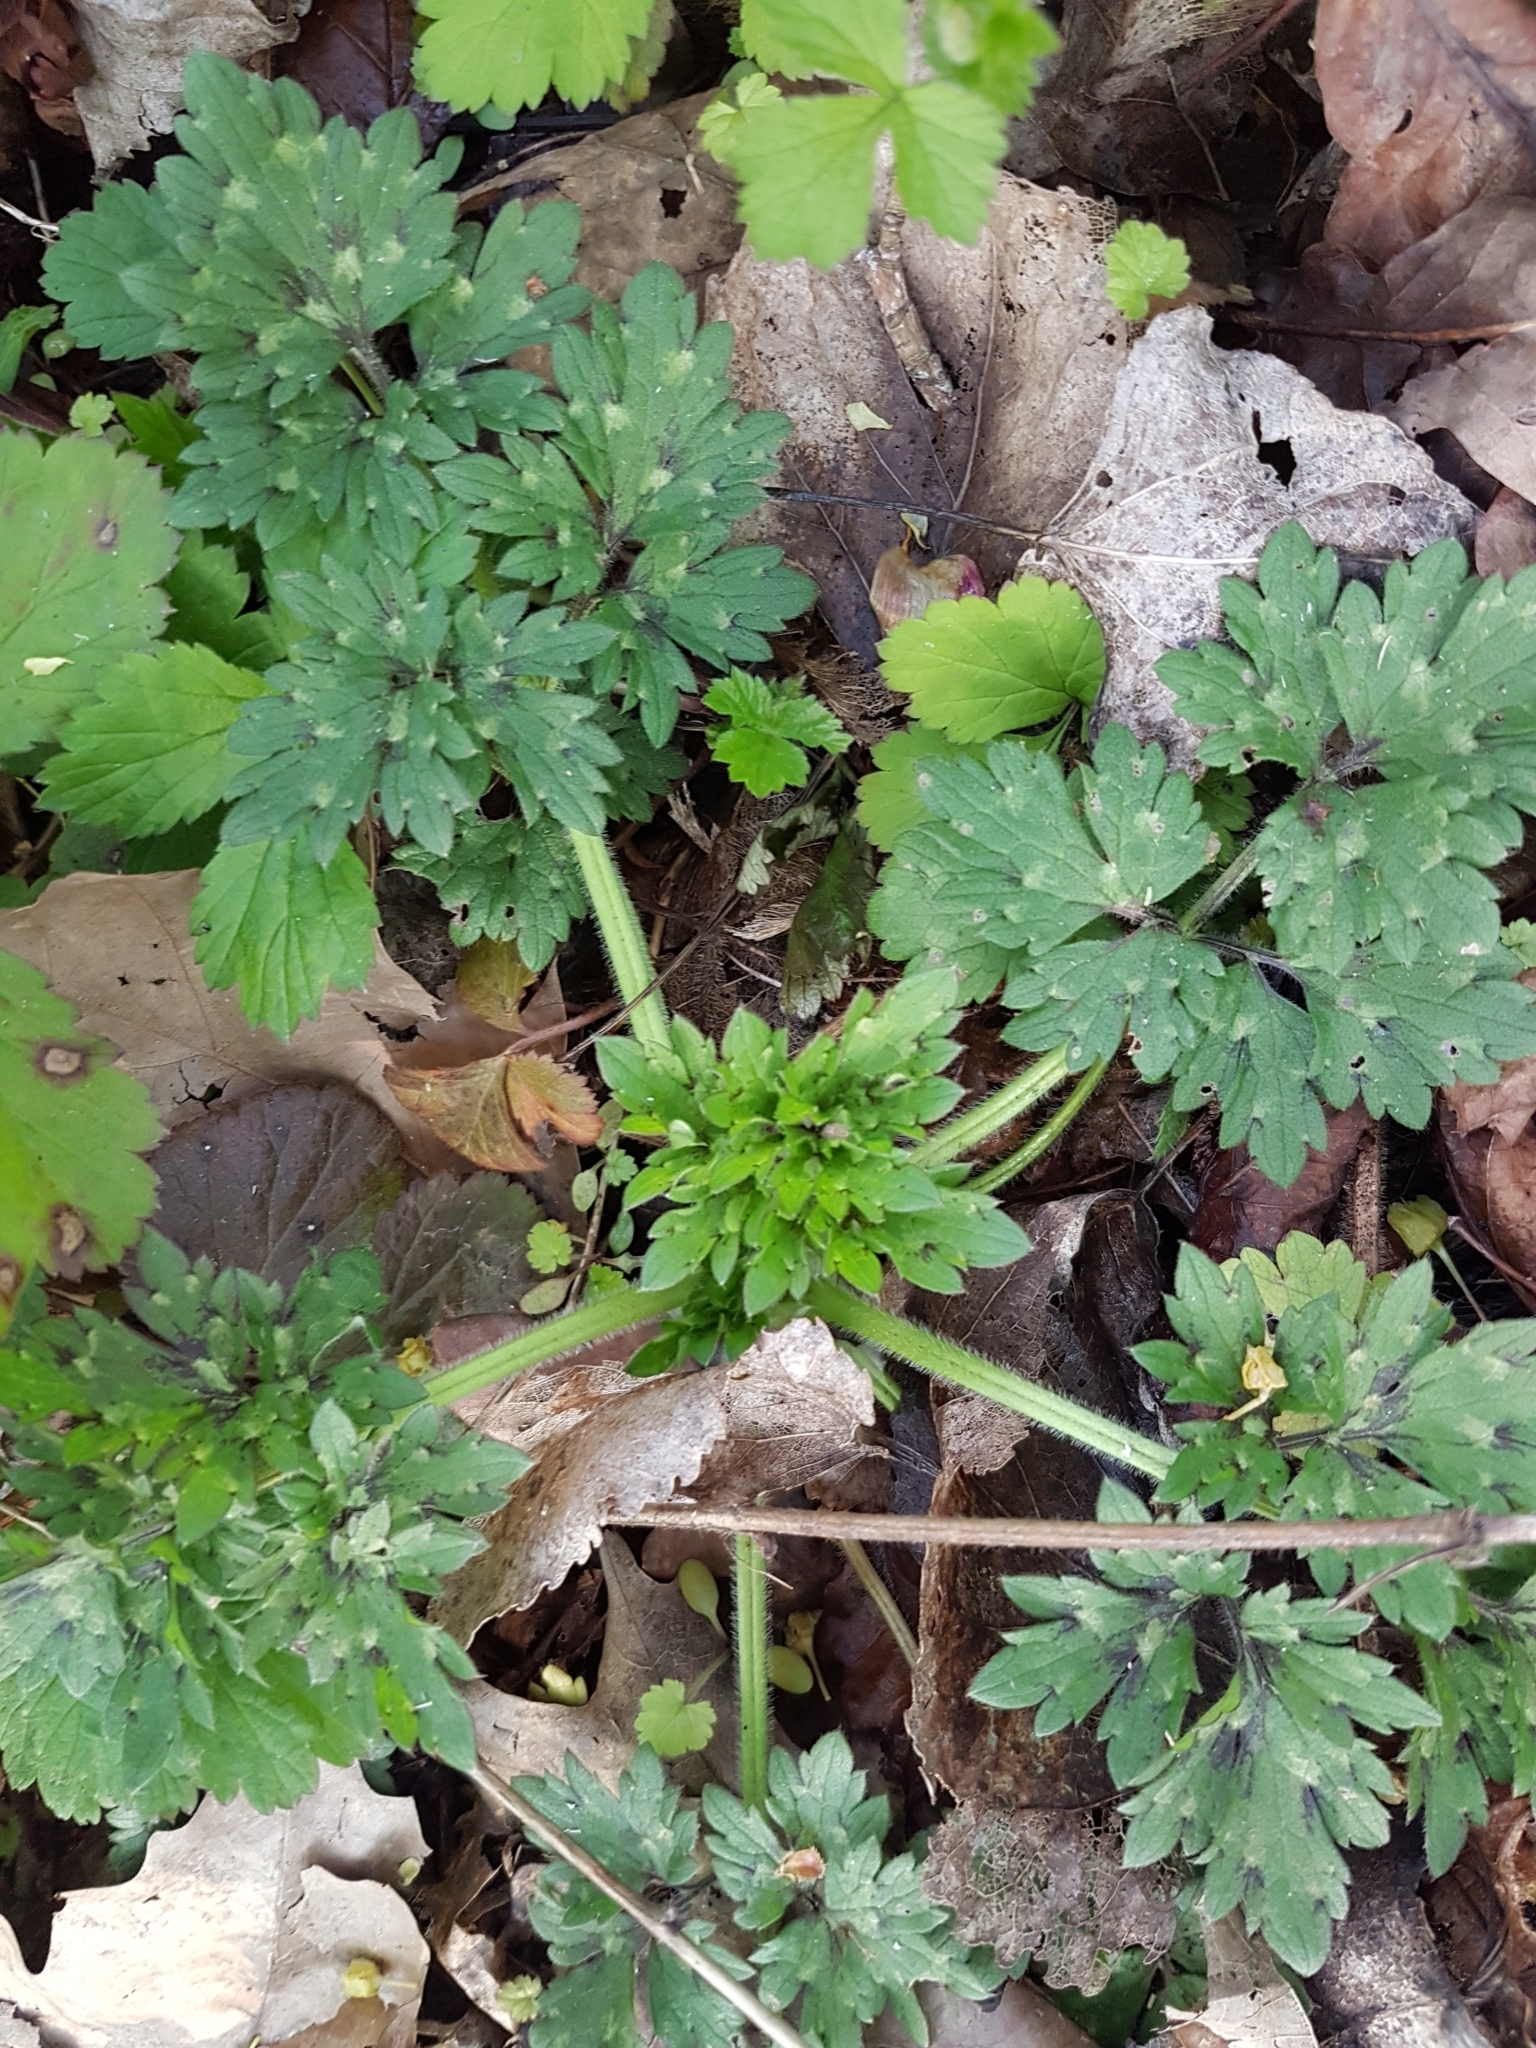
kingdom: Plantae
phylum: Tracheophyta
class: Magnoliopsida
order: Ranunculales
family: Ranunculaceae
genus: Ranunculus
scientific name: Ranunculus repens
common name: Creeping buttercup
